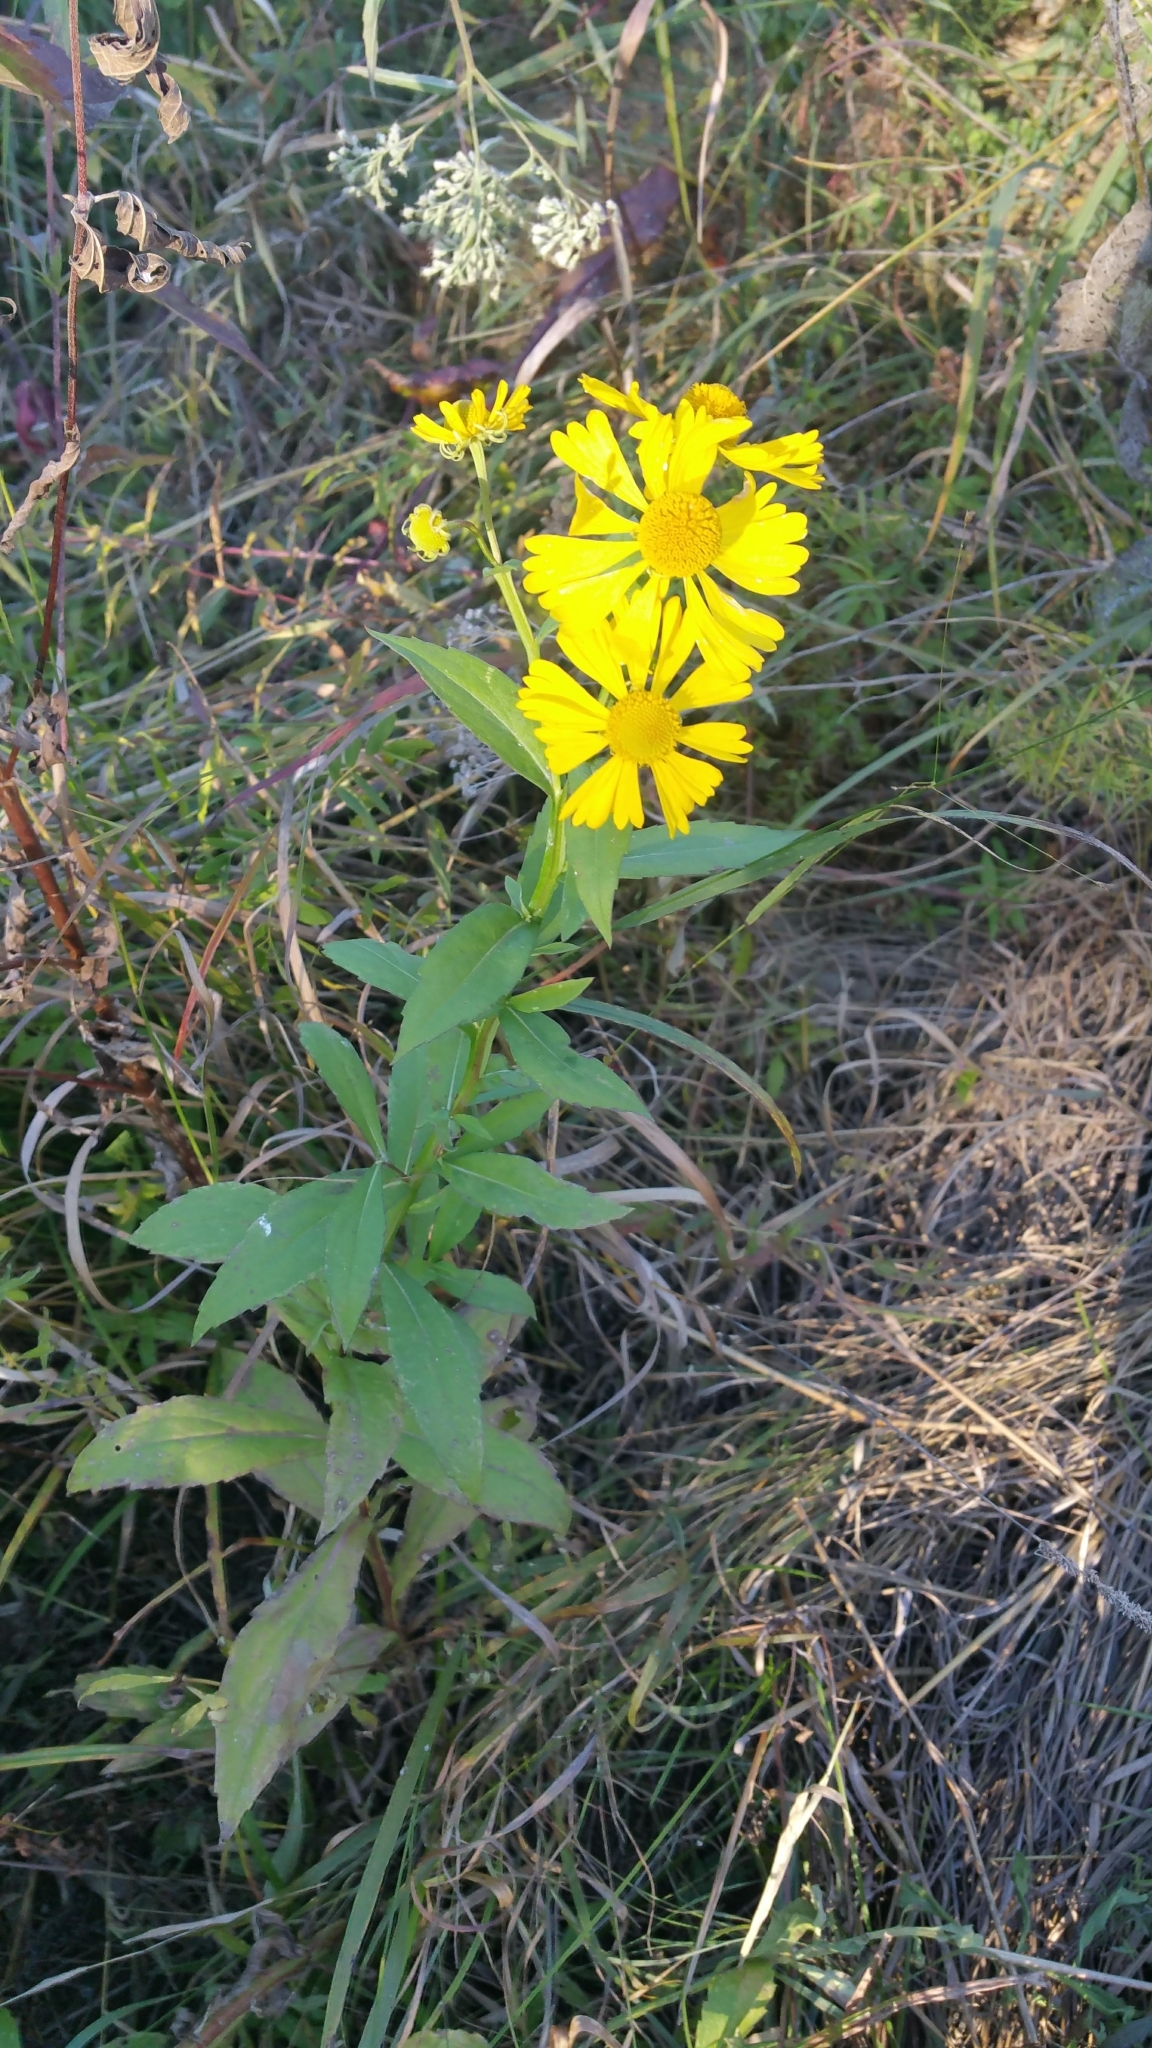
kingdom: Plantae
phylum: Tracheophyta
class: Magnoliopsida
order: Asterales
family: Asteraceae
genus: Helenium
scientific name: Helenium autumnale
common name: Sneezeweed
